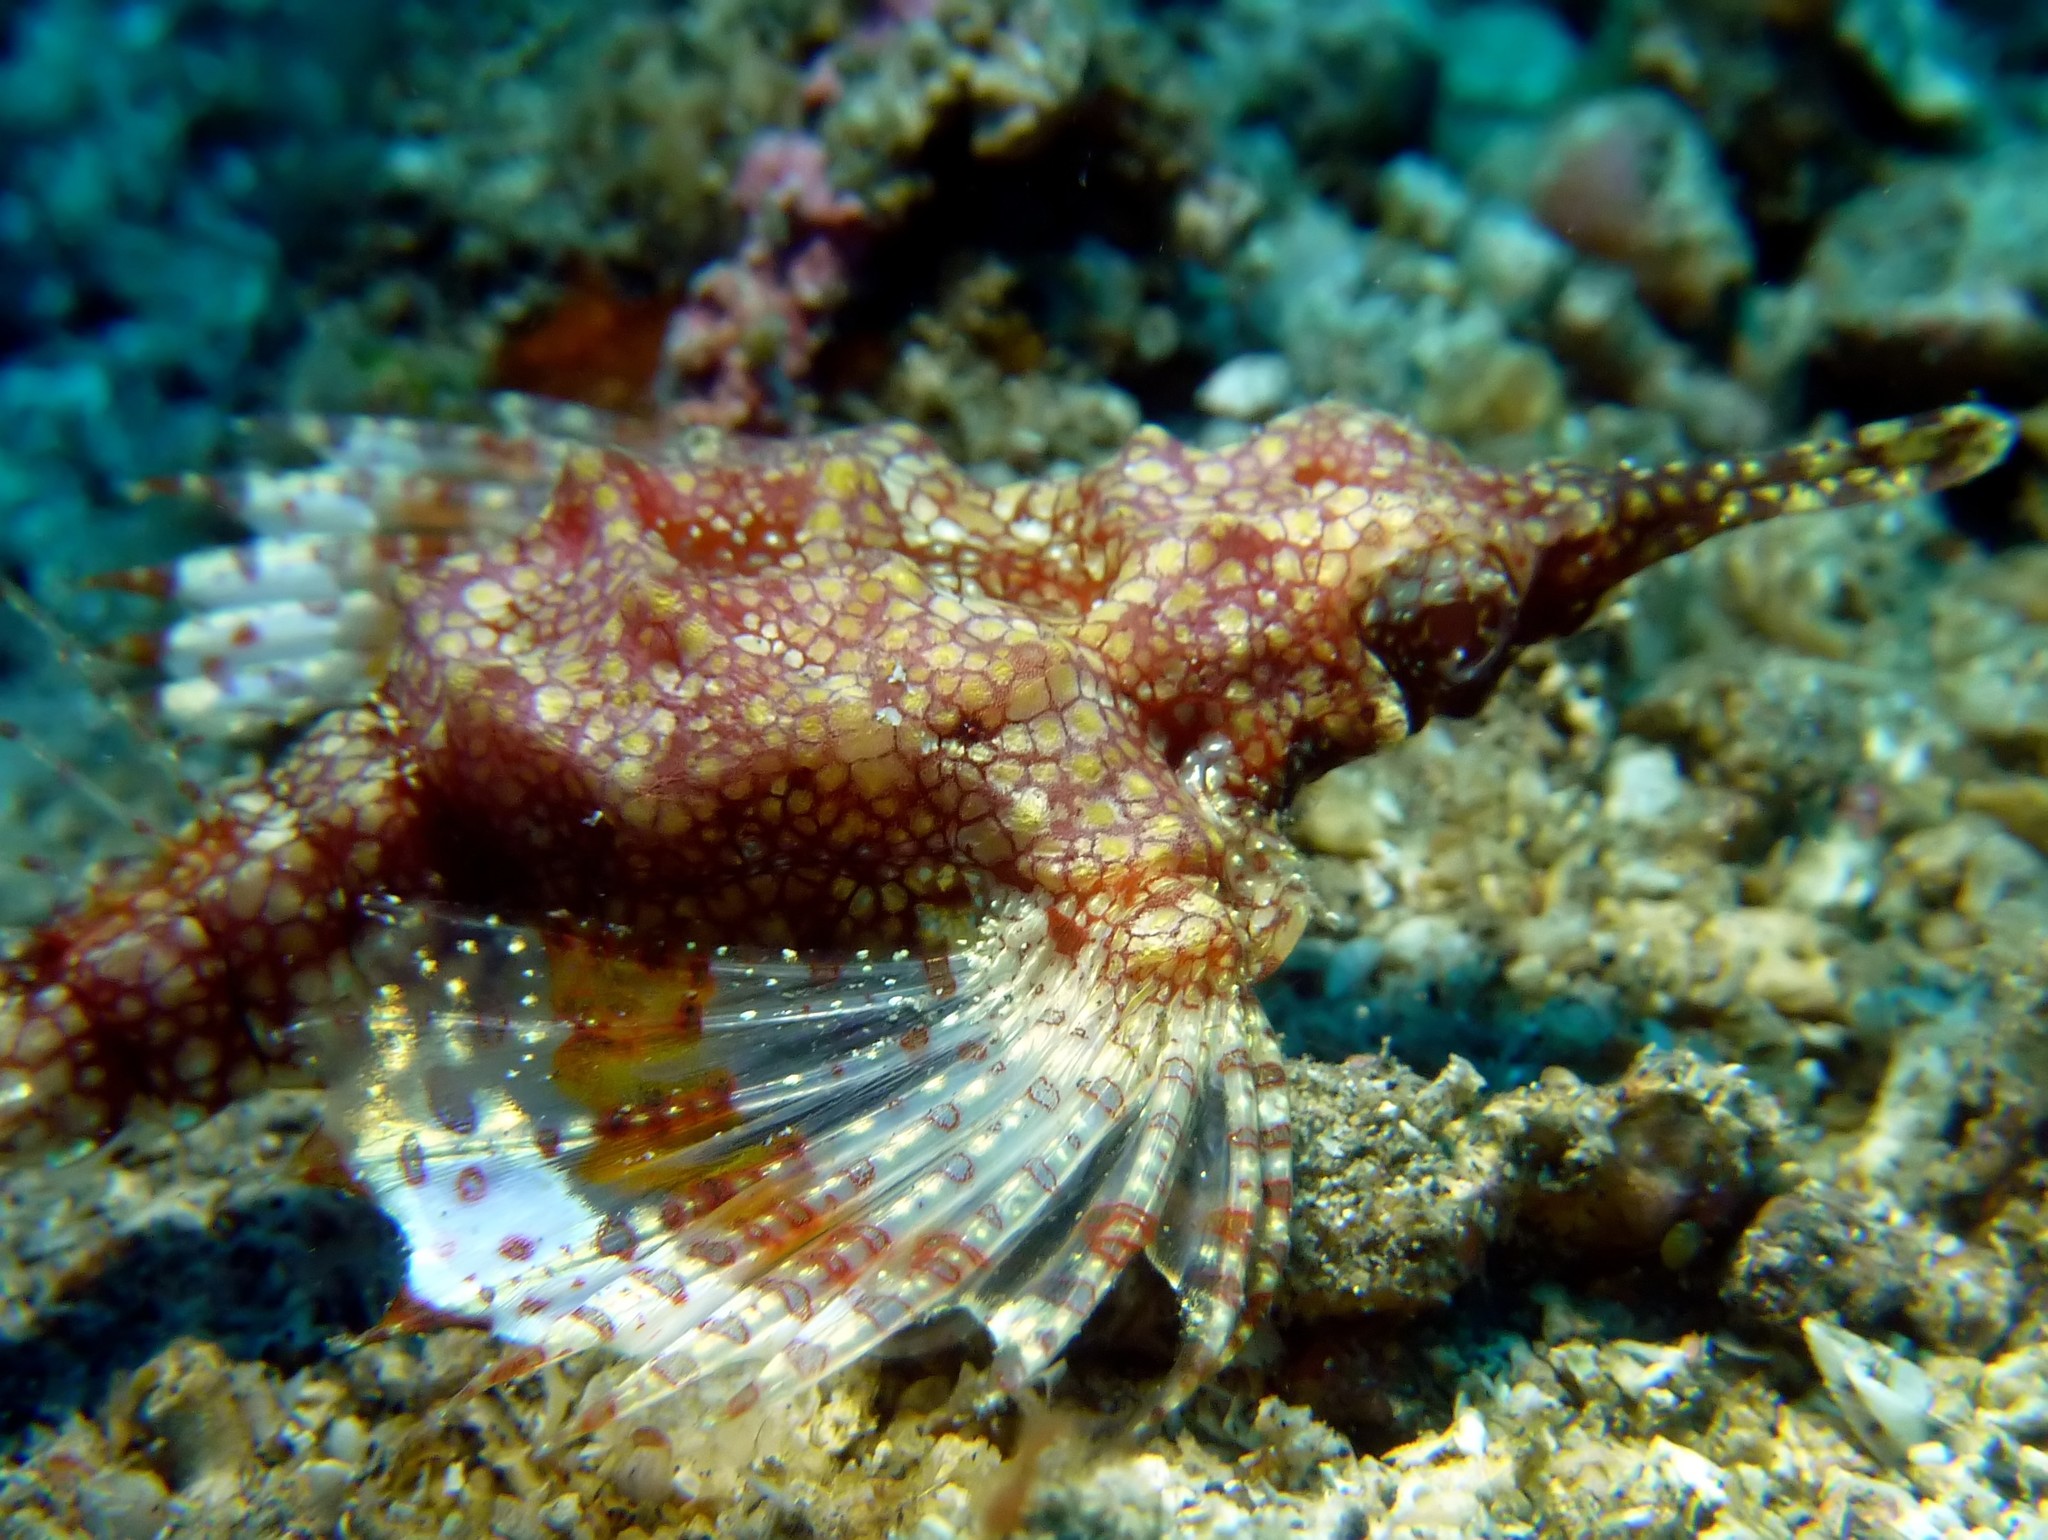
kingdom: Animalia
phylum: Chordata
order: Gasterosteiformes
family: Pegasidae
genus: Eurypegasus
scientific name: Eurypegasus draconis
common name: Short dragonfish
